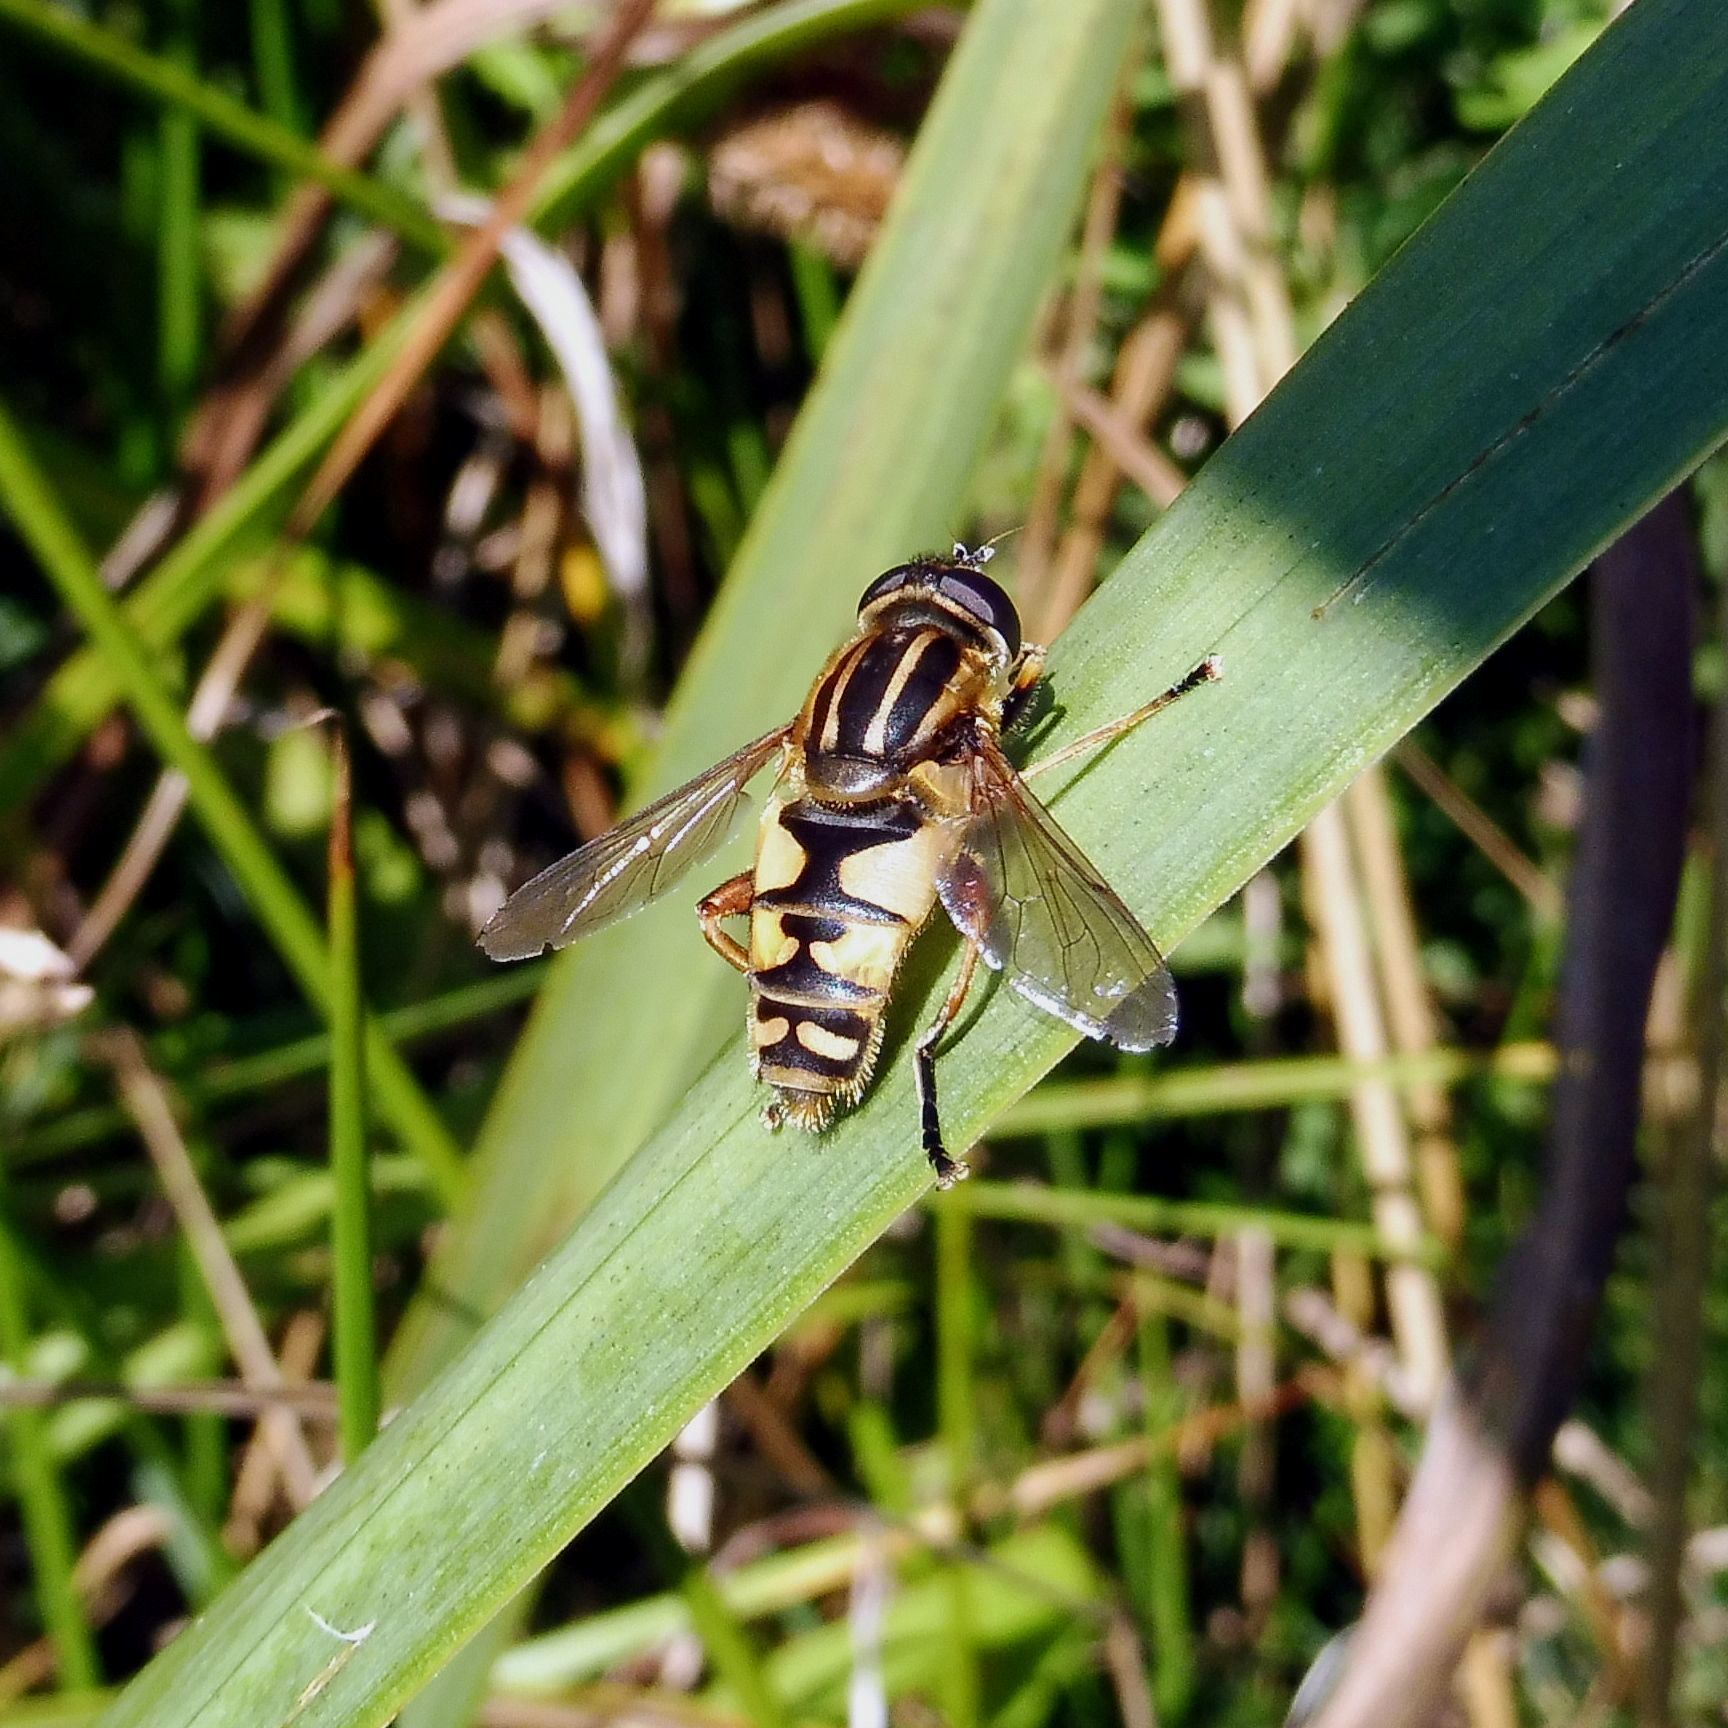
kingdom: Animalia
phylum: Arthropoda
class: Insecta
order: Diptera
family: Syrphidae
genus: Helophilus
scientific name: Helophilus pendulus
